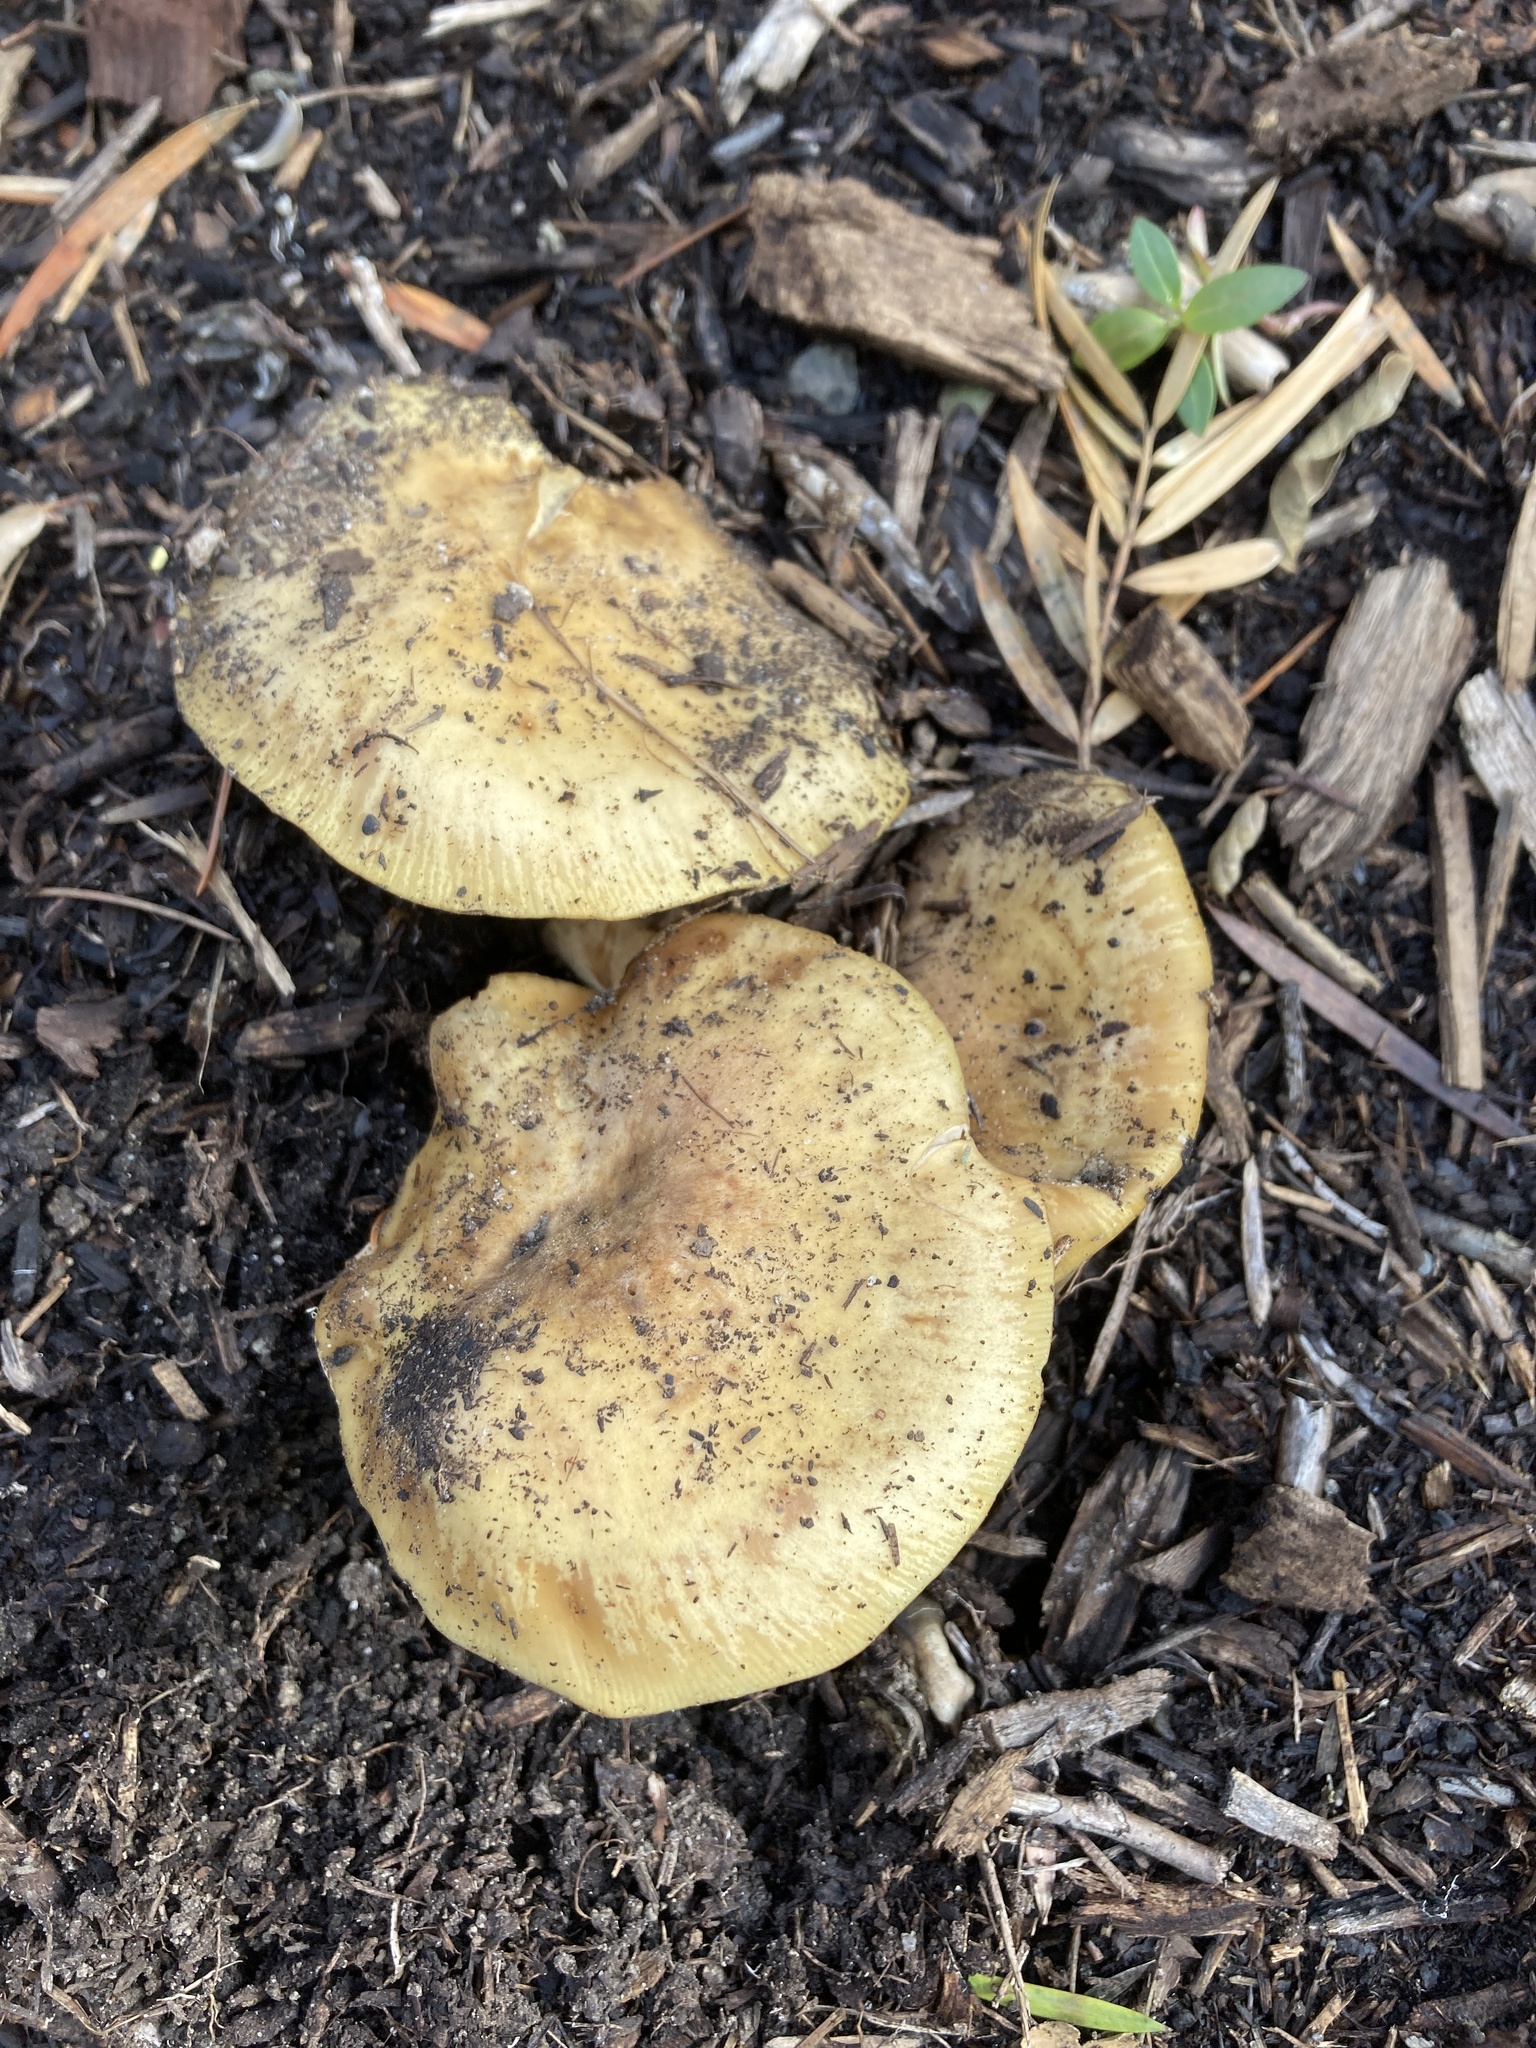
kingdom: Fungi
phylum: Basidiomycota
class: Agaricomycetes
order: Agaricales
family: Physalacriaceae
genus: Armillaria
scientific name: Armillaria mellea
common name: Honey fungus
